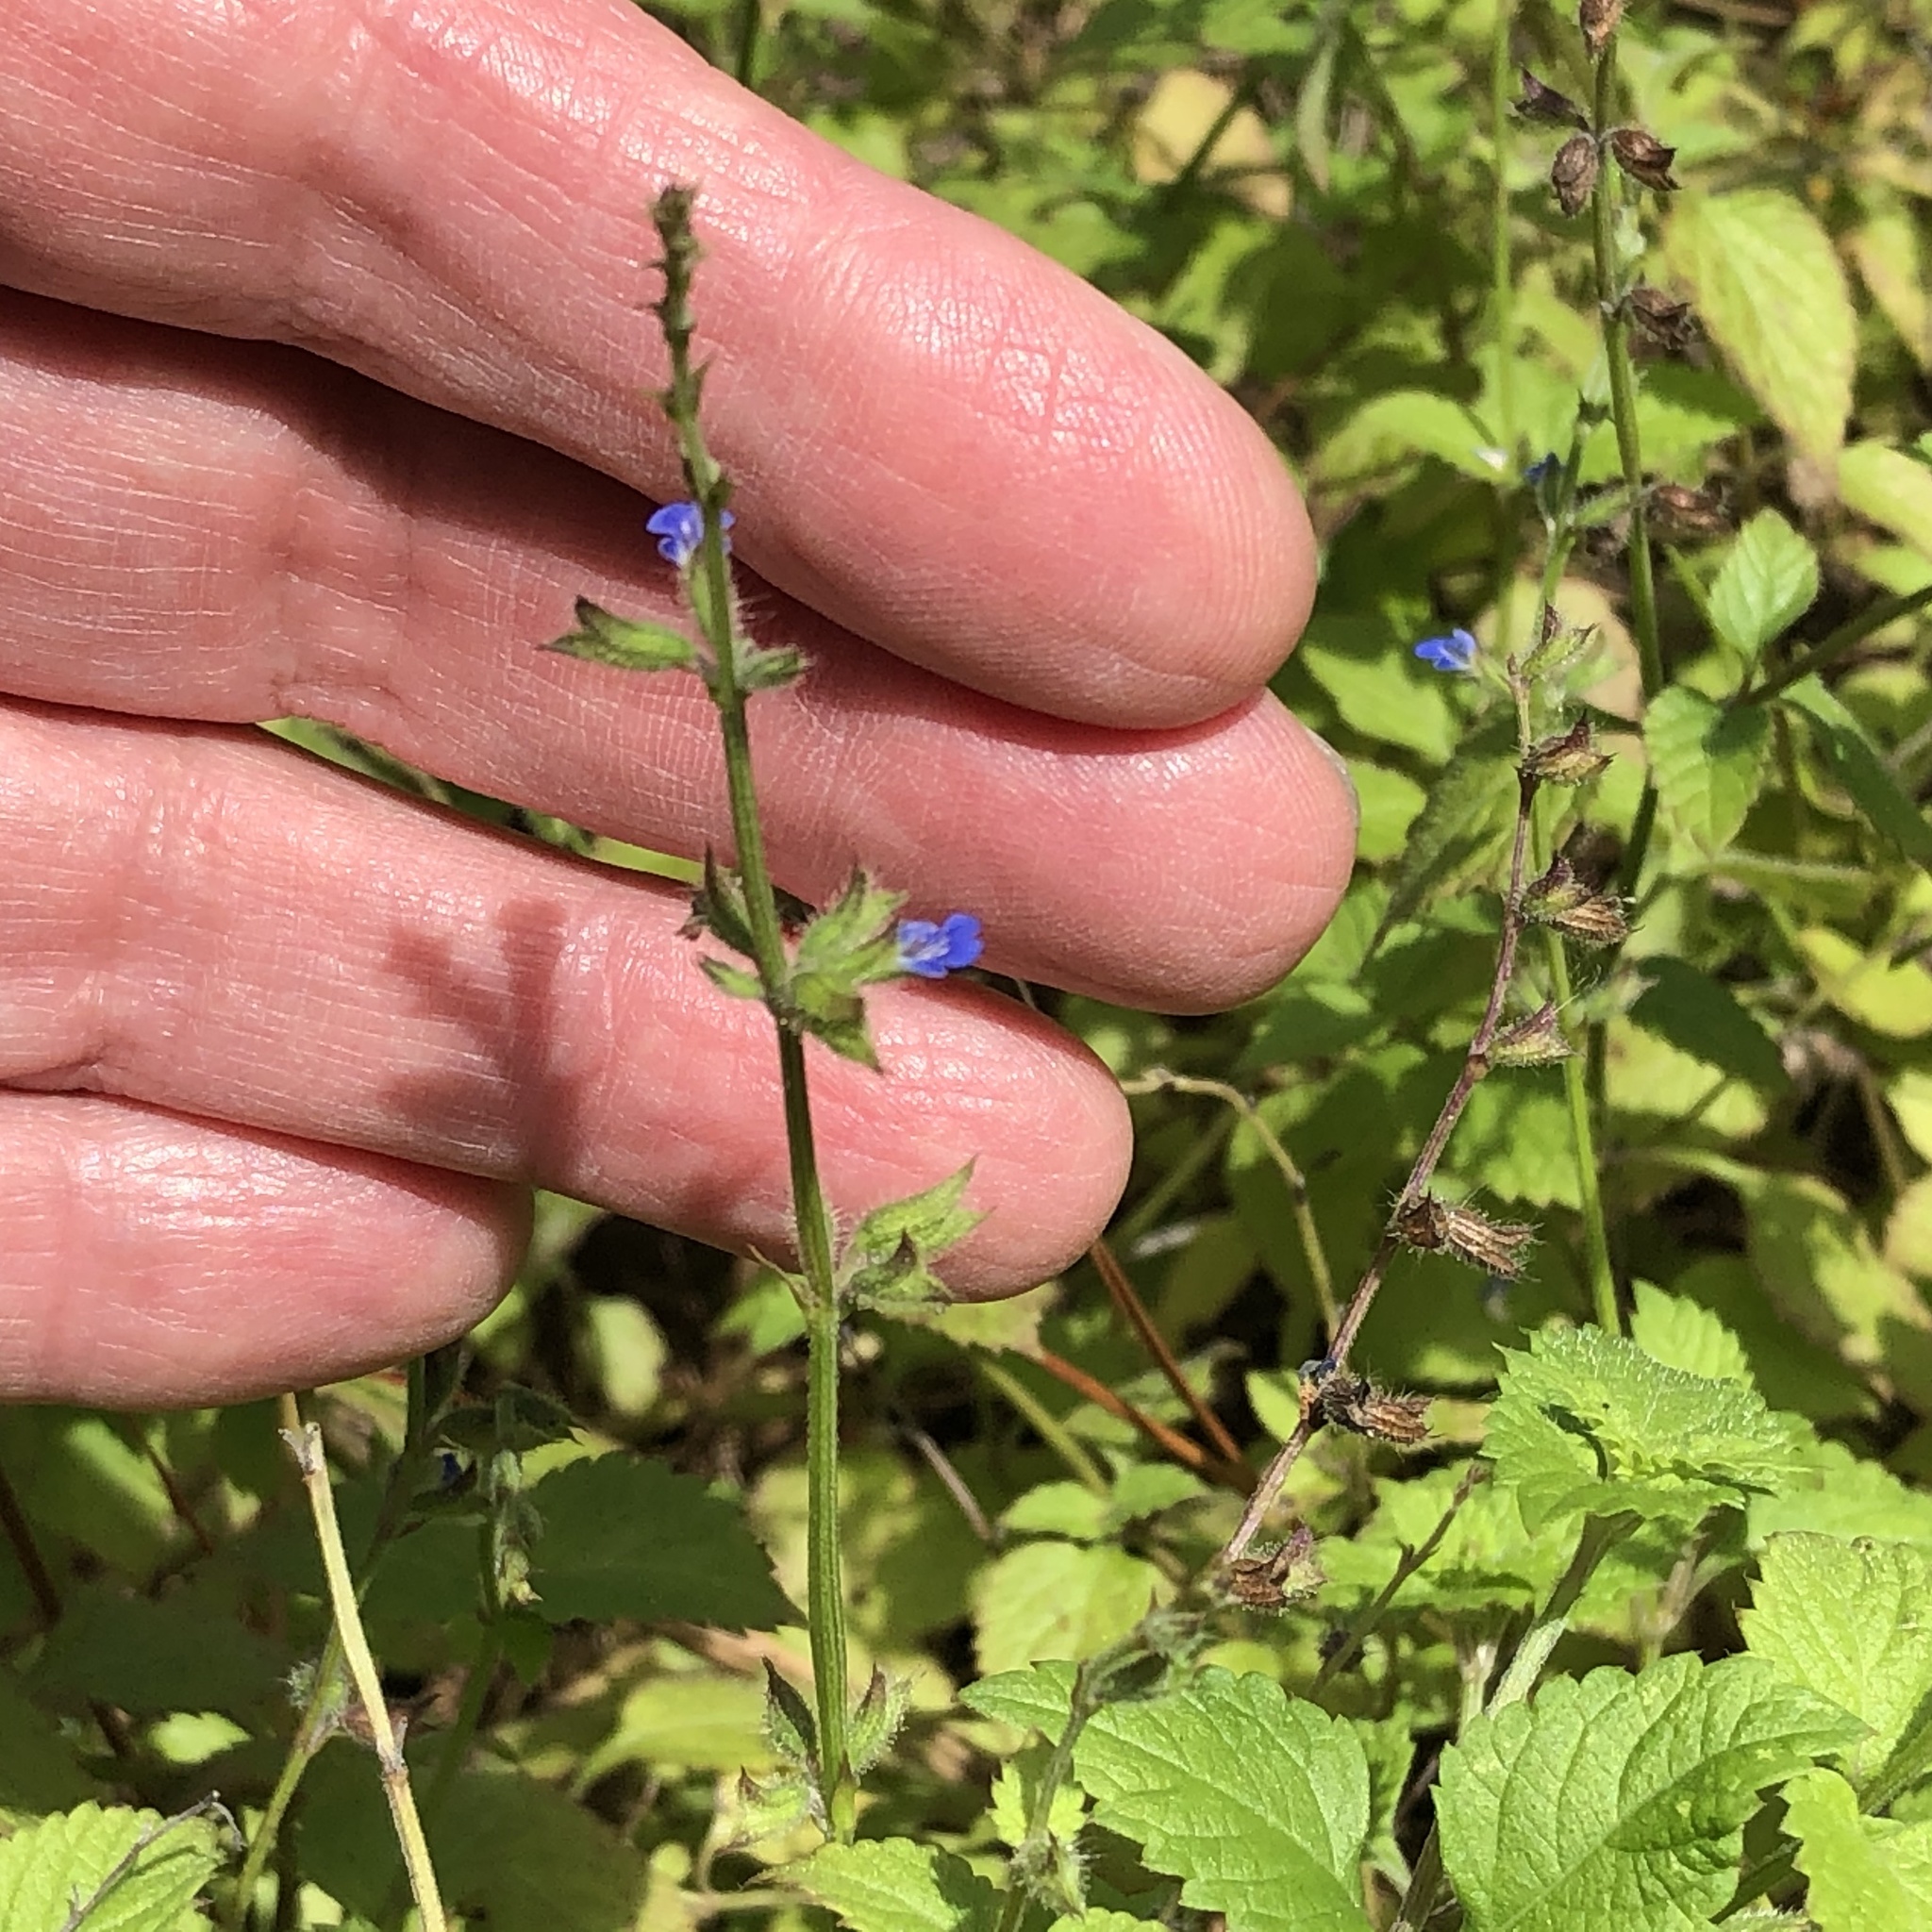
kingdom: Plantae
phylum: Tracheophyta
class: Magnoliopsida
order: Lamiales
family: Lamiaceae
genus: Salvia
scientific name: Salvia misella
